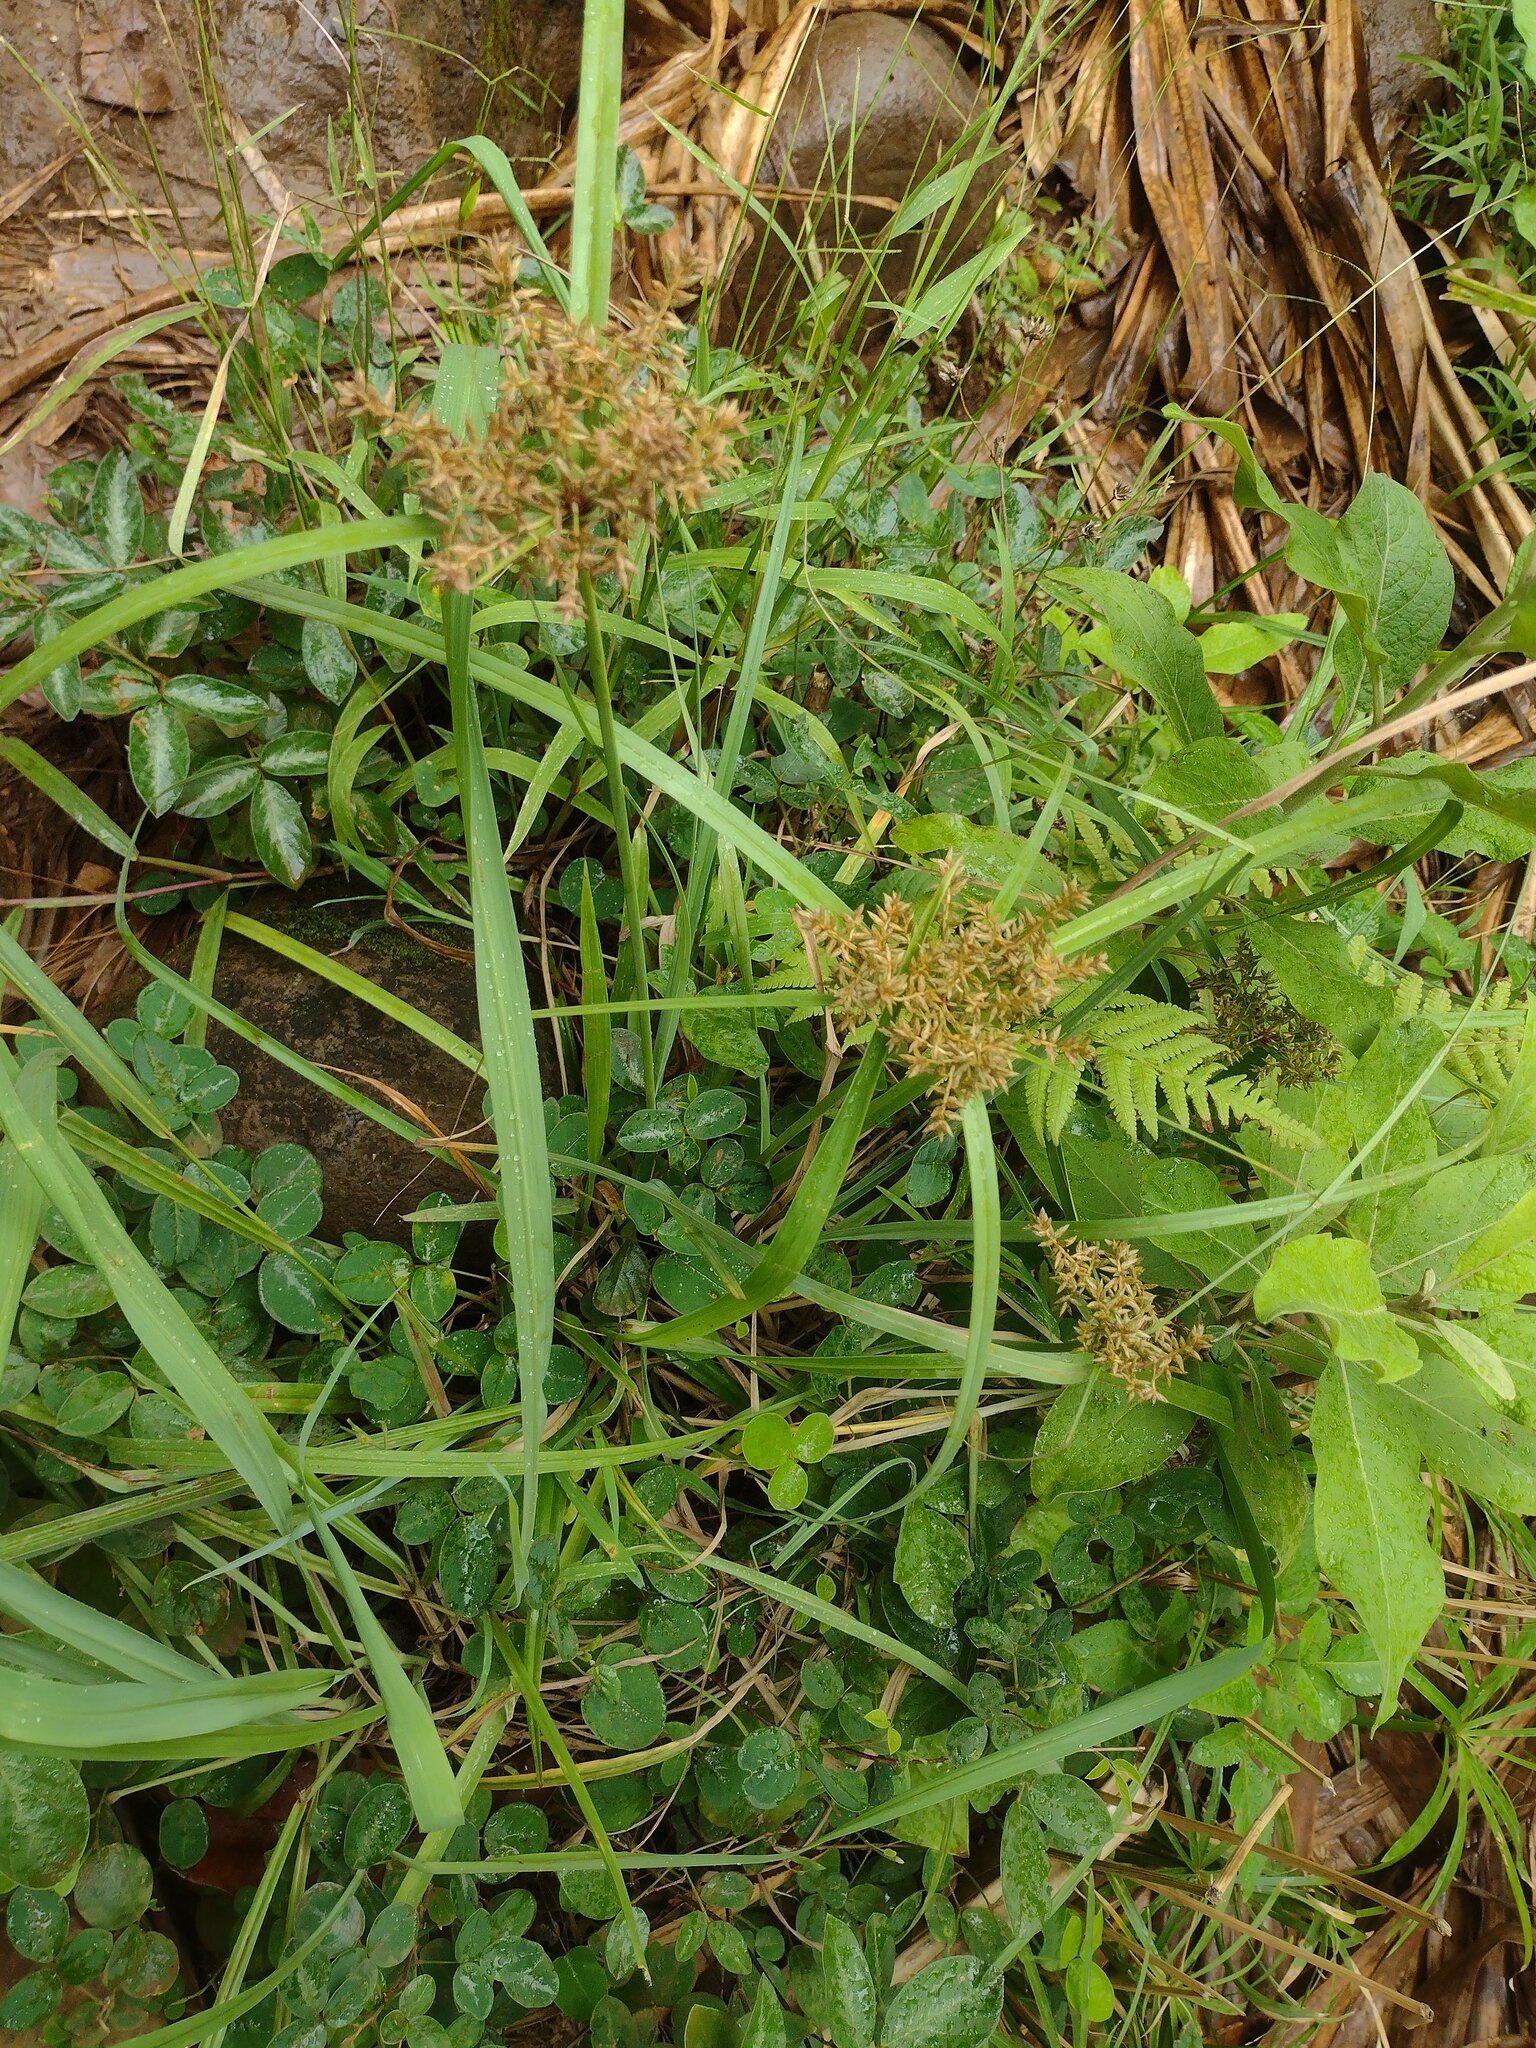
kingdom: Plantae
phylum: Tracheophyta
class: Liliopsida
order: Poales
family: Cyperaceae
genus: Cyperus
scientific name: Cyperus javanicus
